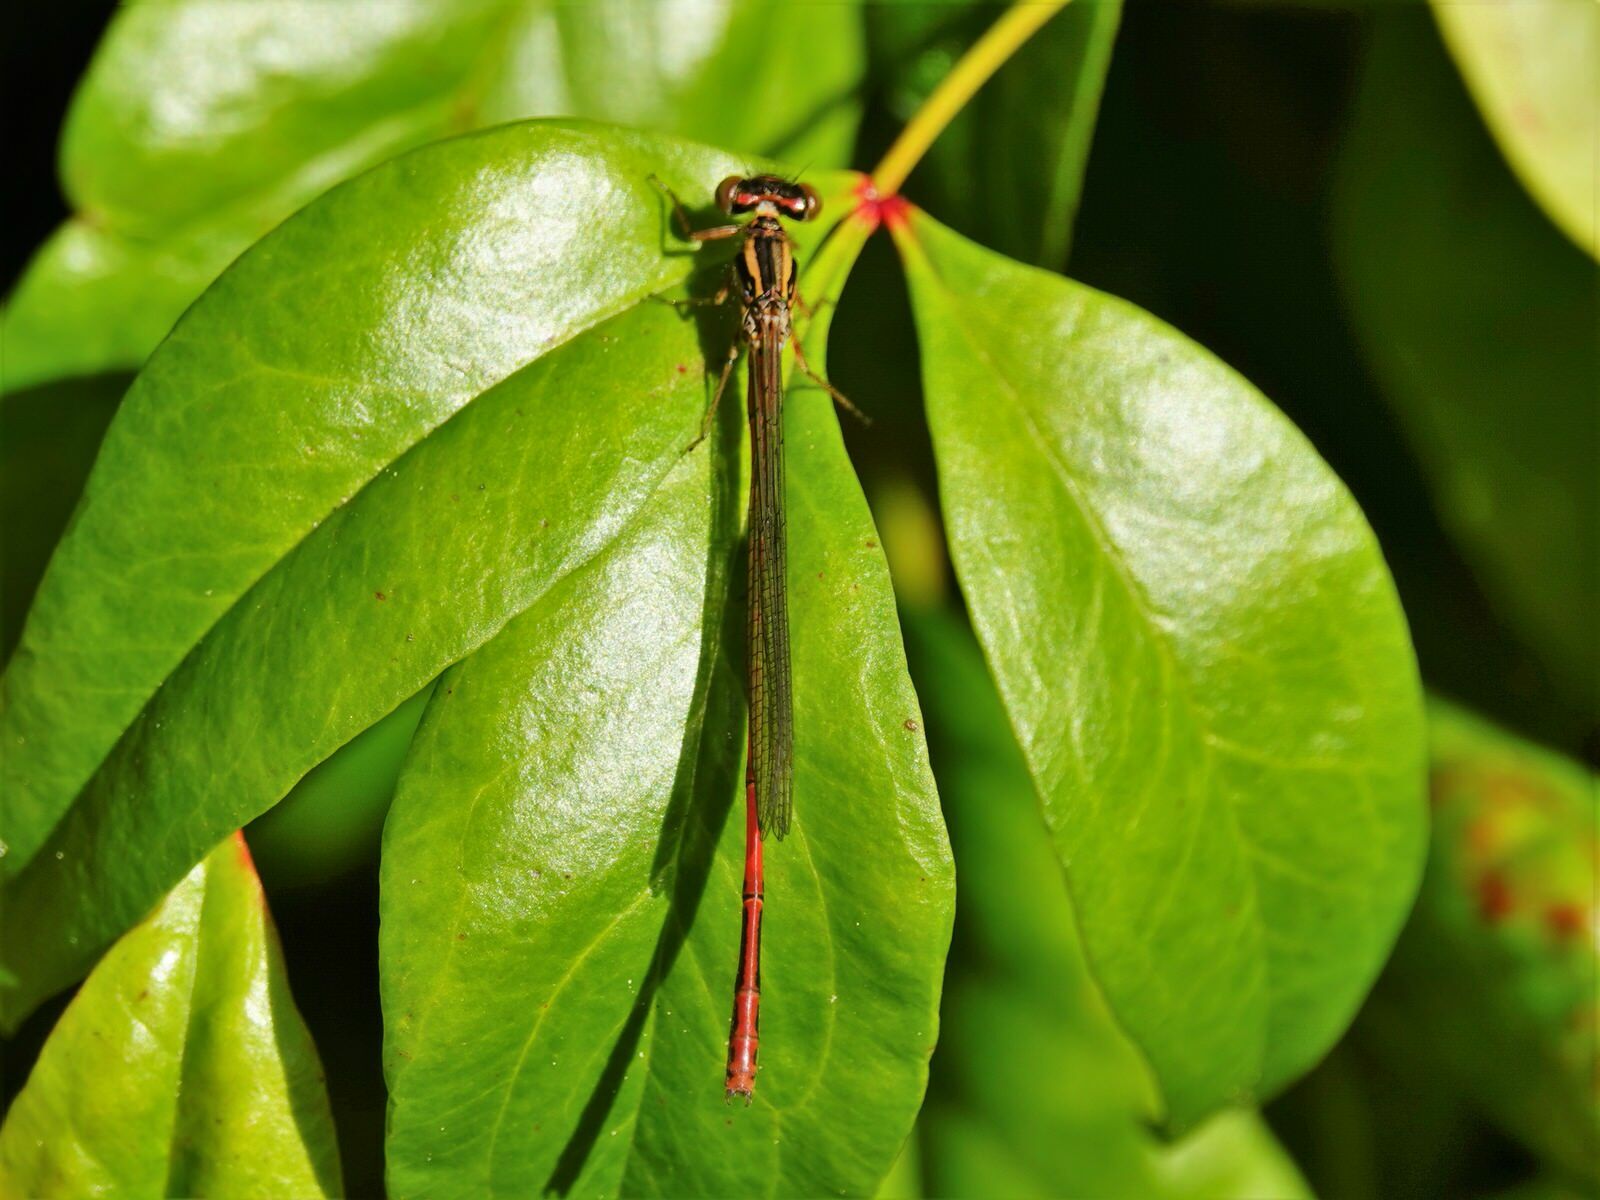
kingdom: Animalia
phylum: Arthropoda
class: Insecta
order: Odonata
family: Coenagrionidae
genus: Xanthocnemis
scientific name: Xanthocnemis zealandica
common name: Common redcoat damselfly
